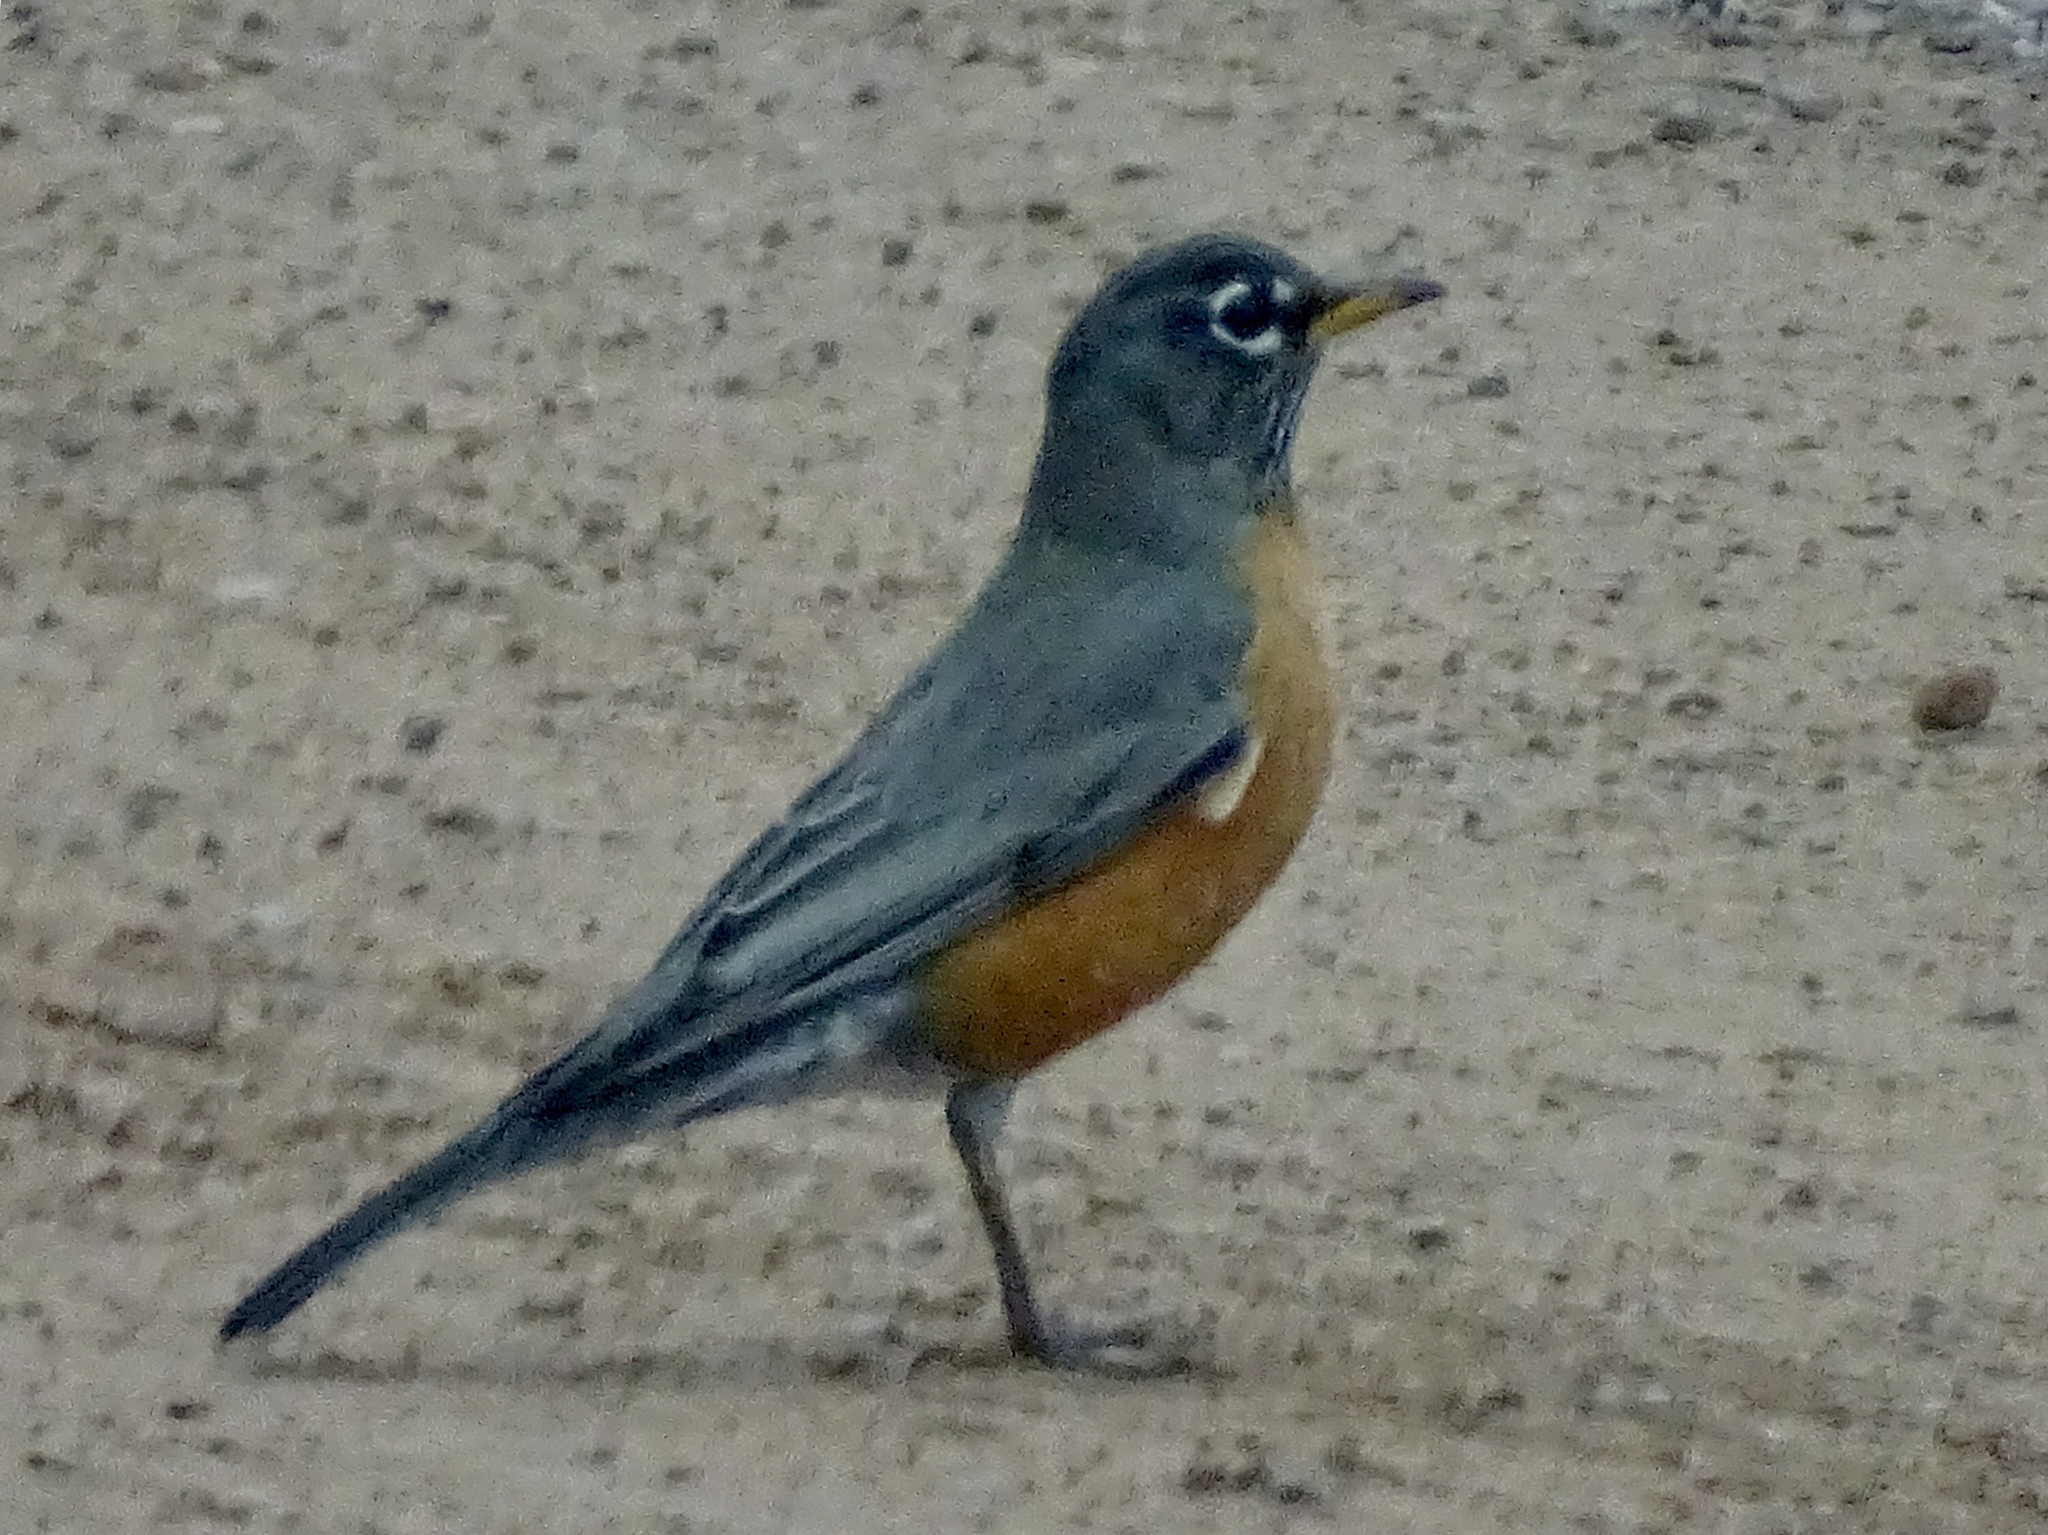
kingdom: Animalia
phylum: Chordata
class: Aves
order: Passeriformes
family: Turdidae
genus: Turdus
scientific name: Turdus migratorius
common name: American robin
